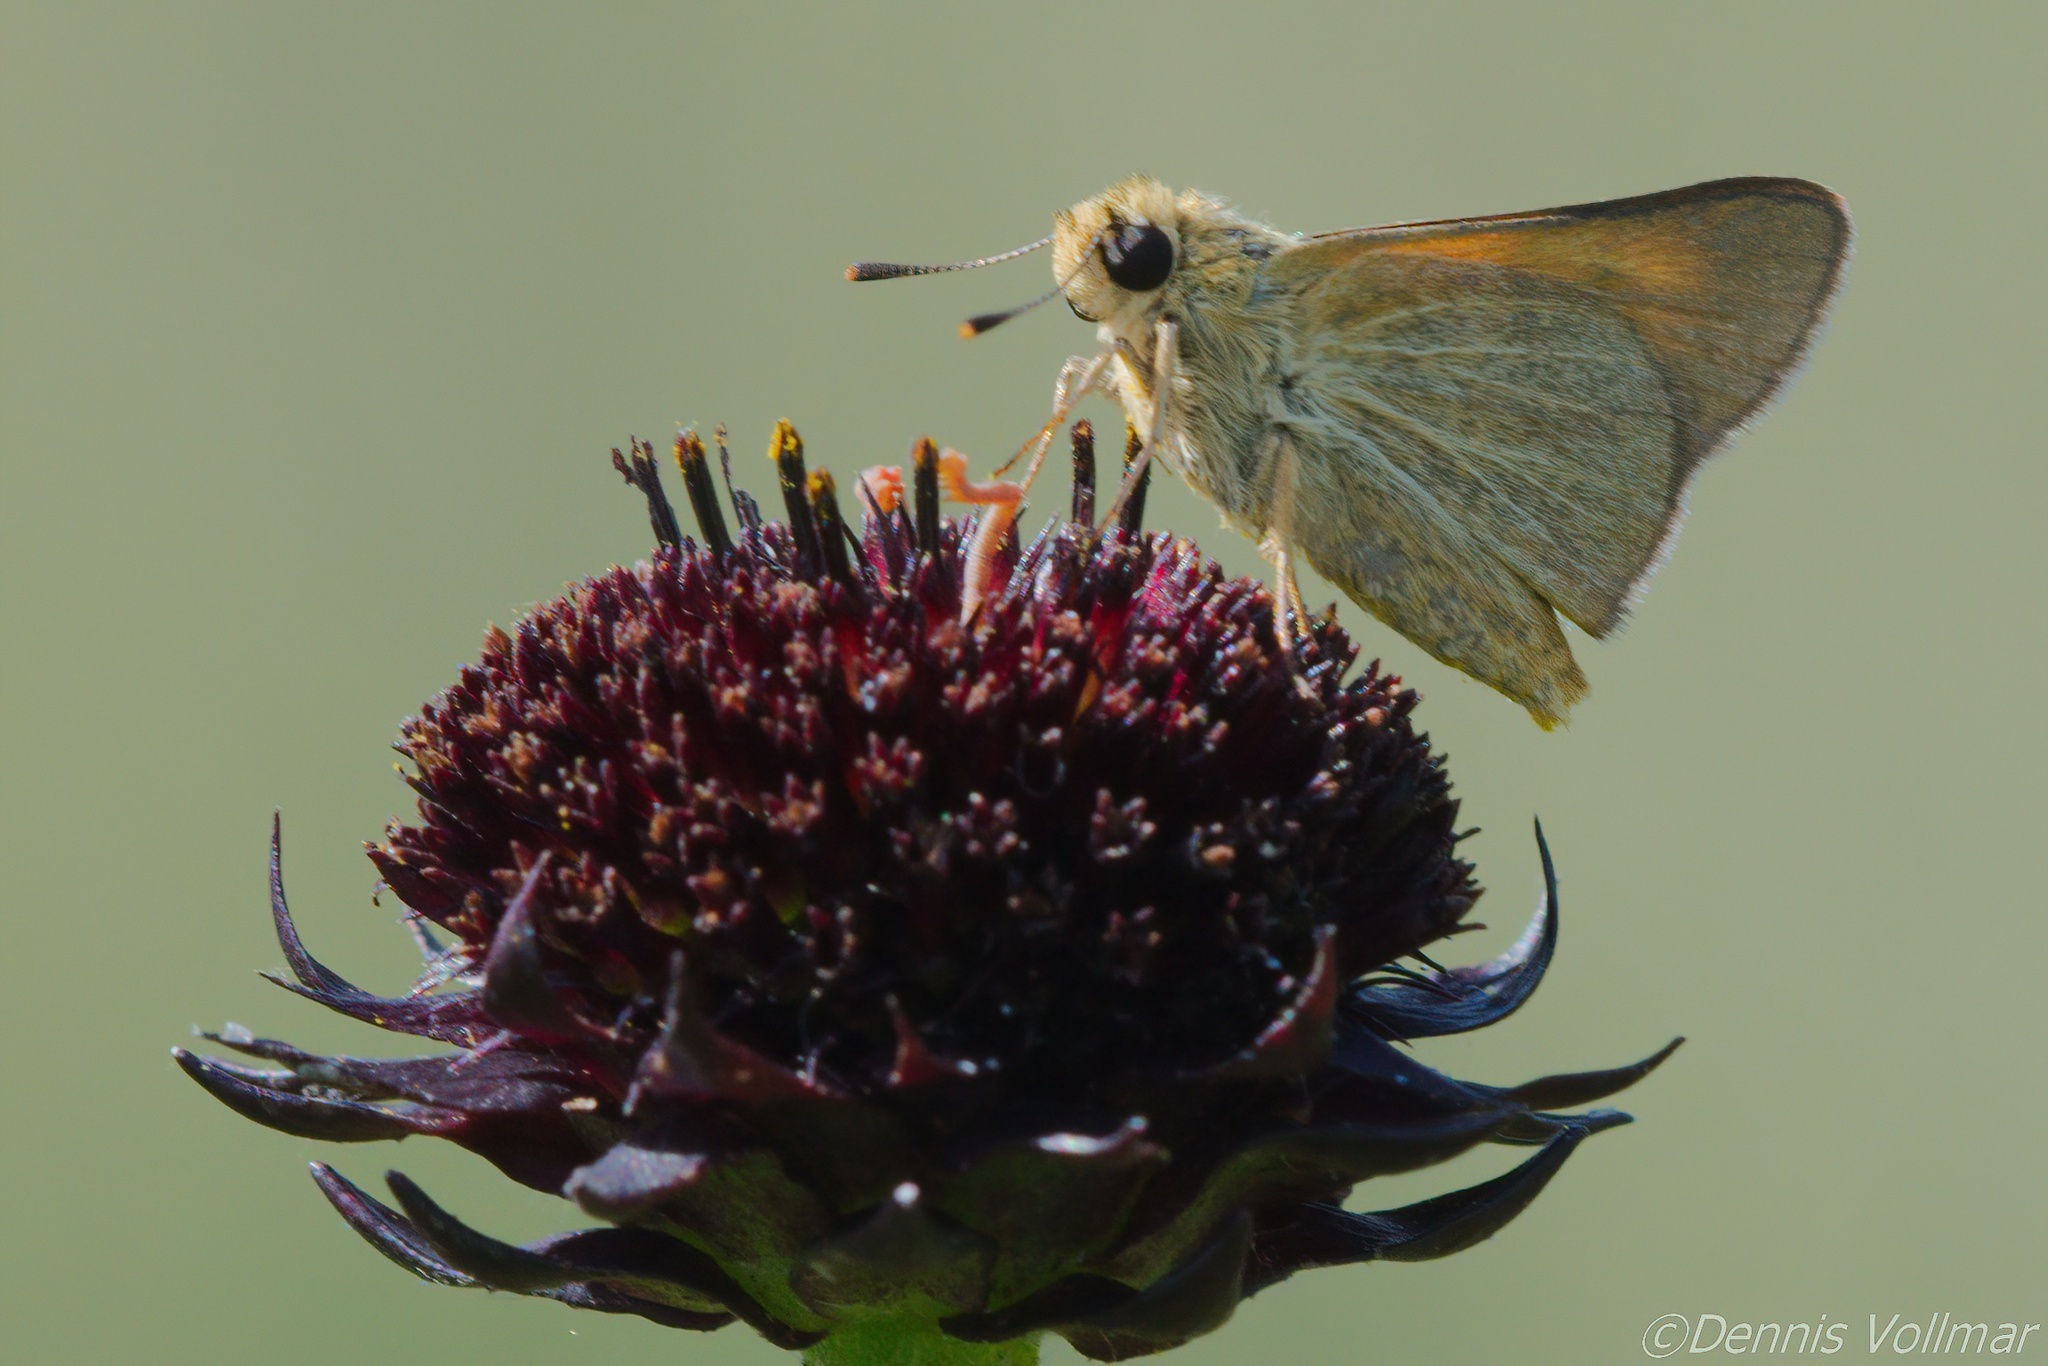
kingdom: Animalia
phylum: Arthropoda
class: Insecta
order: Lepidoptera
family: Hesperiidae
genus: Atrytone
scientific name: Atrytone arogos
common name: Arogos skipper
